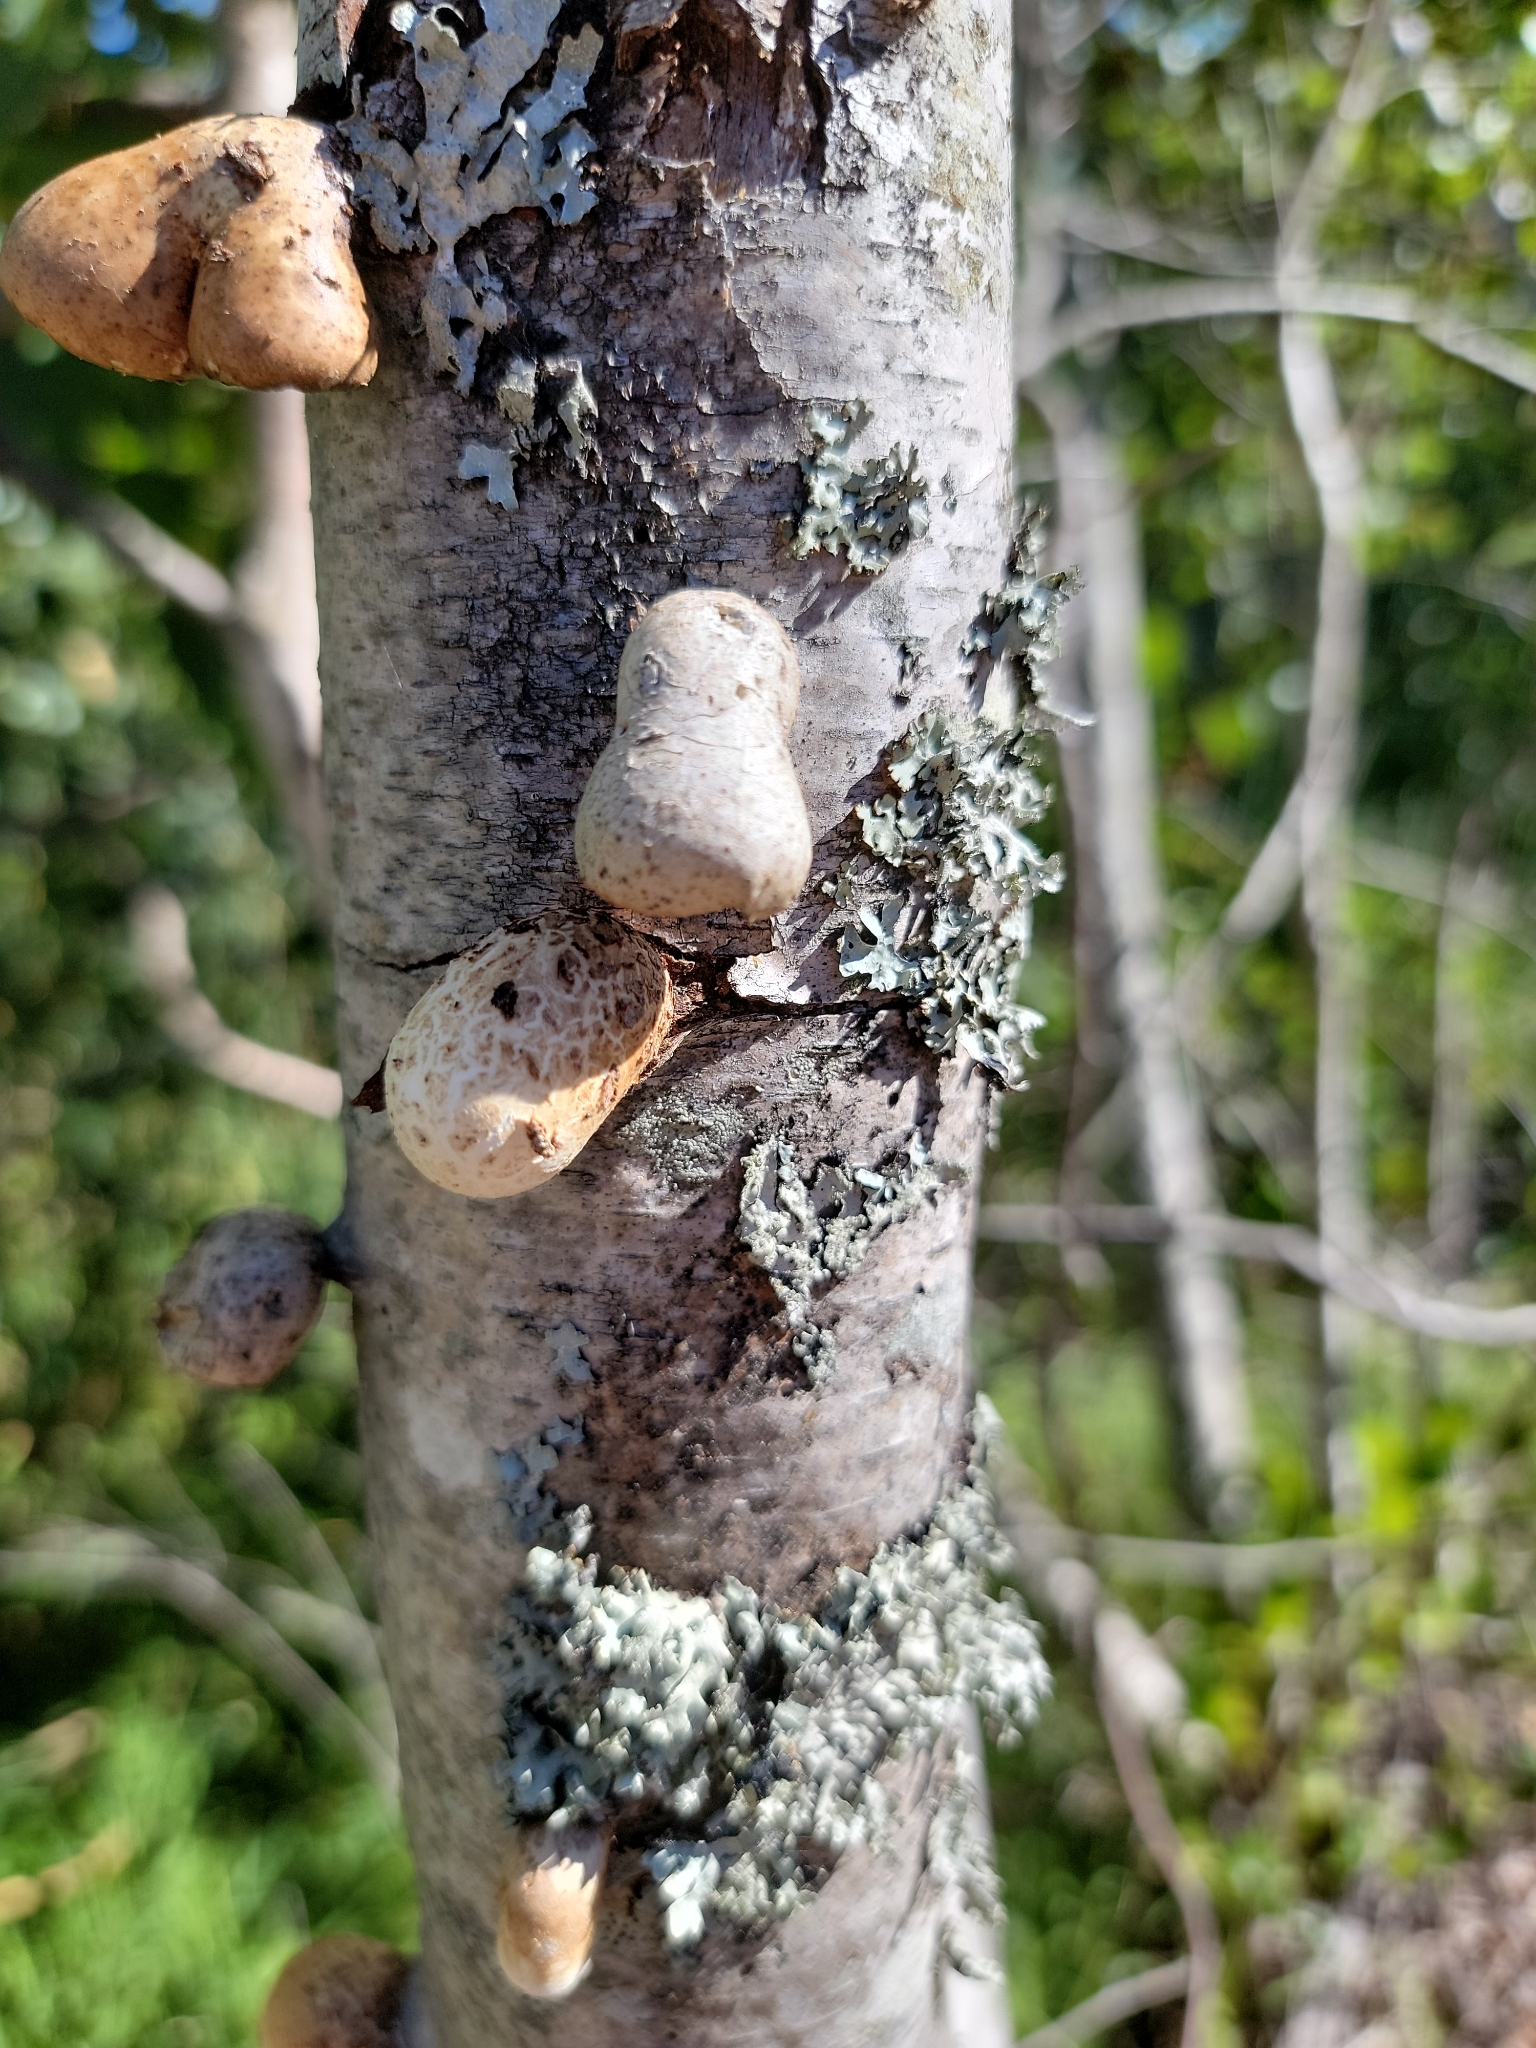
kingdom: Fungi
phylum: Basidiomycota
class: Agaricomycetes
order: Polyporales
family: Fomitopsidaceae
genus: Fomitopsis
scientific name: Fomitopsis betulina
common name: Birch polypore
